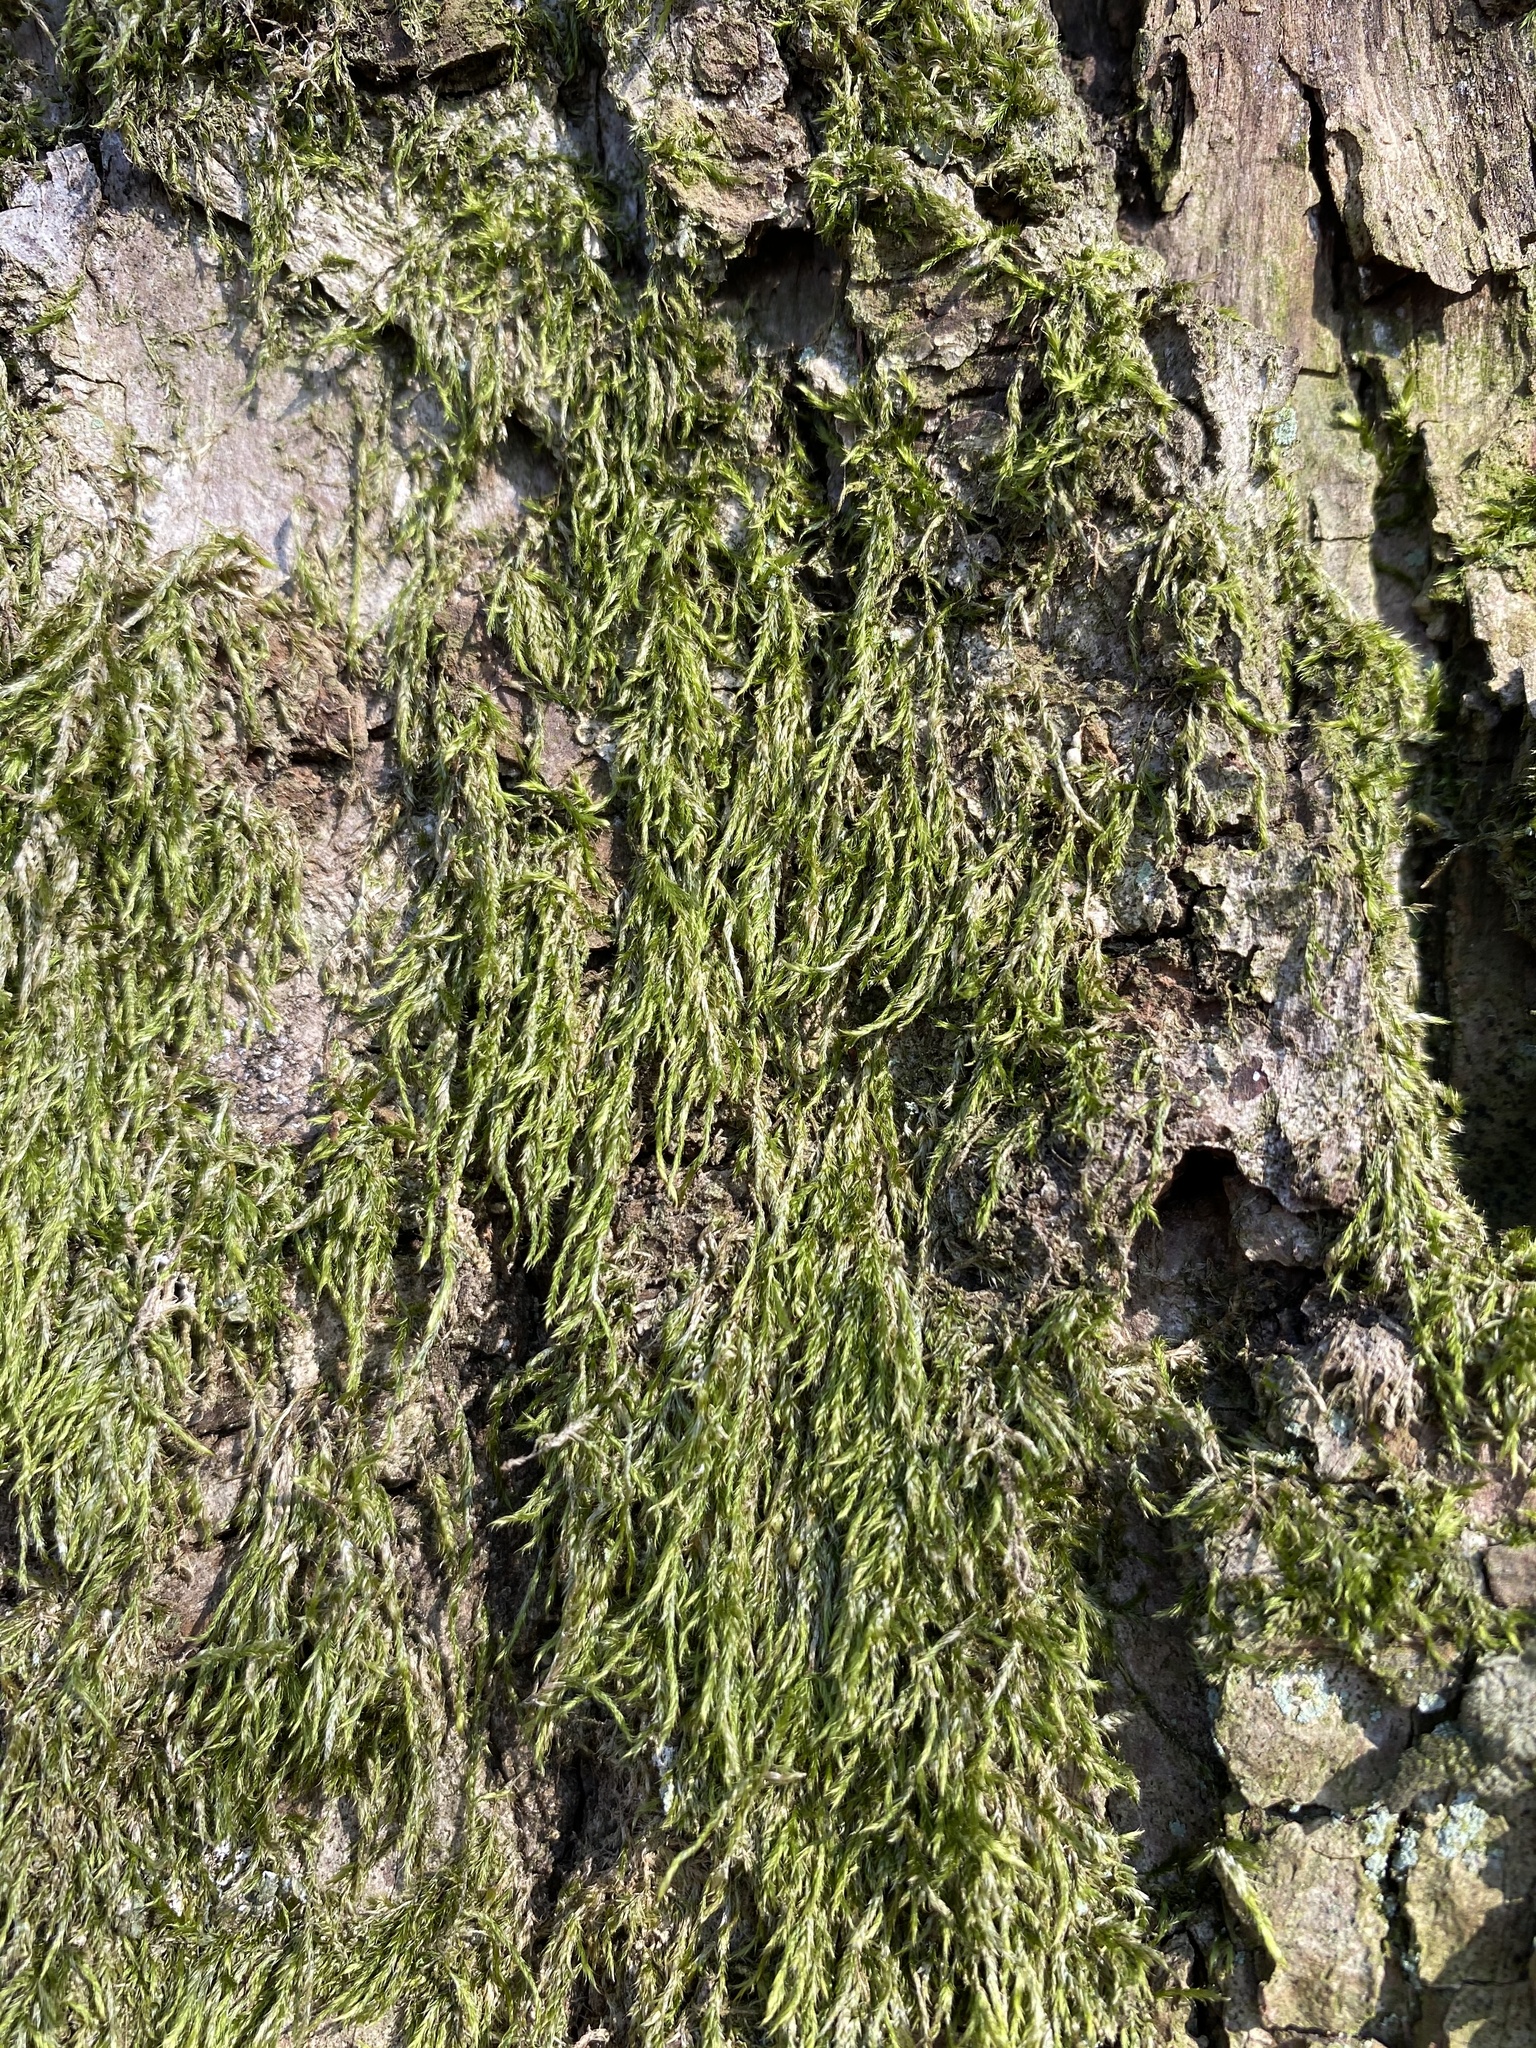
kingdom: Plantae
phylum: Bryophyta
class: Bryopsida
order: Hypnales
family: Hypnaceae
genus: Hypnum
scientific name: Hypnum cupressiforme
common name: Cypress-leaved plait-moss
